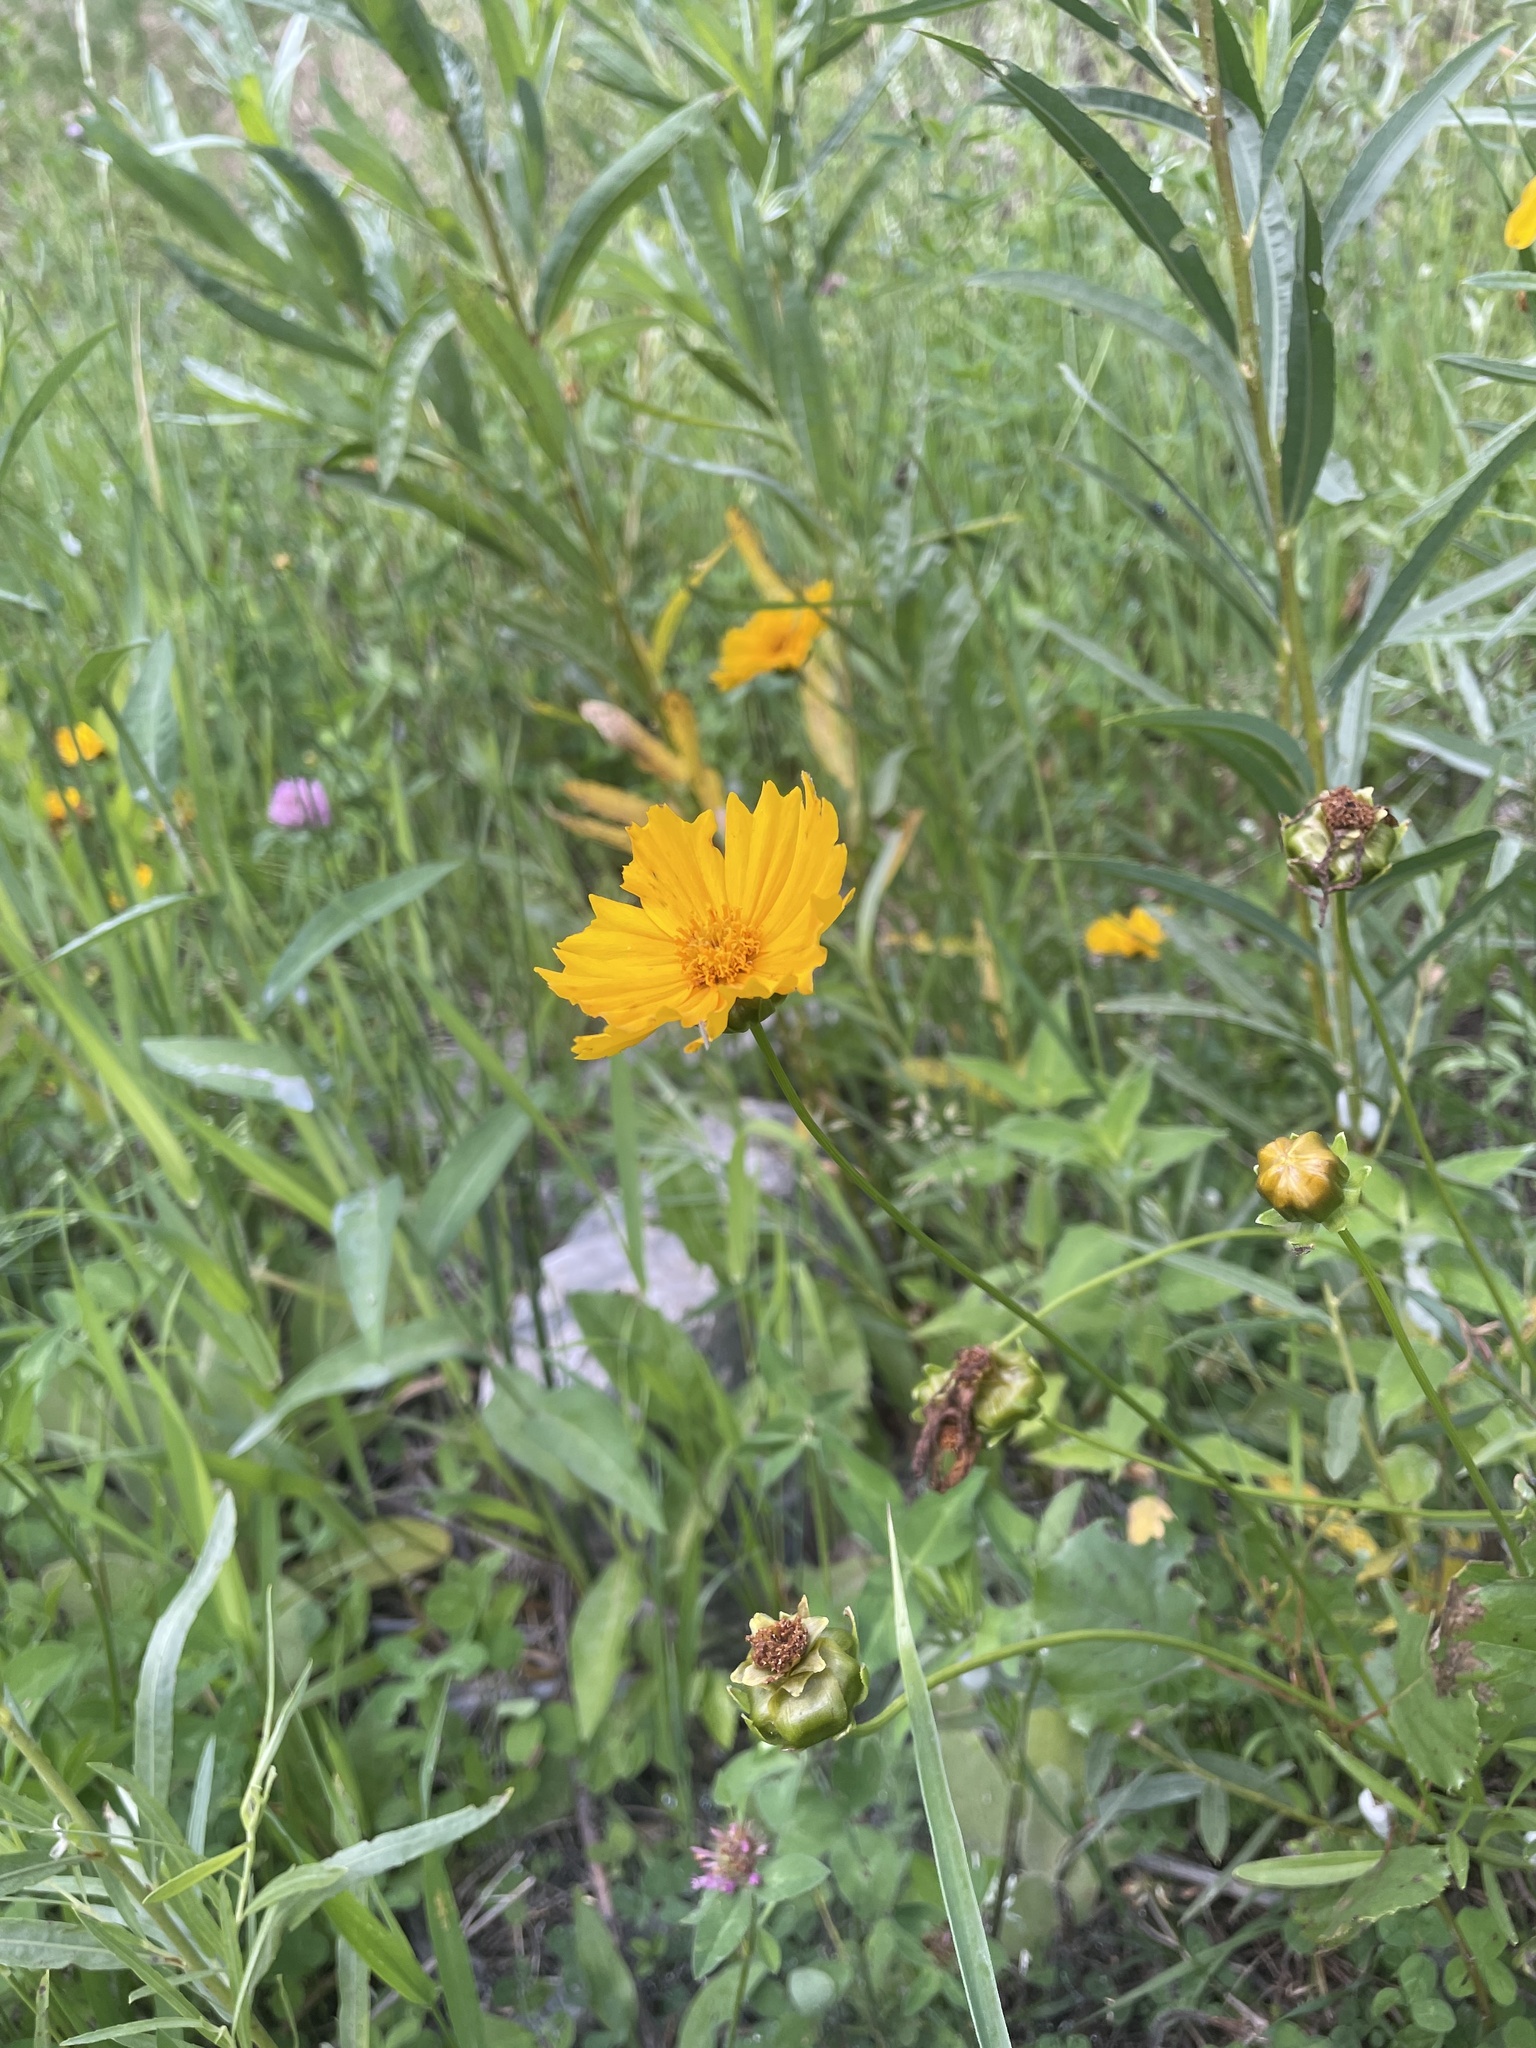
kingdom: Plantae
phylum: Tracheophyta
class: Magnoliopsida
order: Asterales
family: Asteraceae
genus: Coreopsis
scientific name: Coreopsis lanceolata
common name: Garden coreopsis
